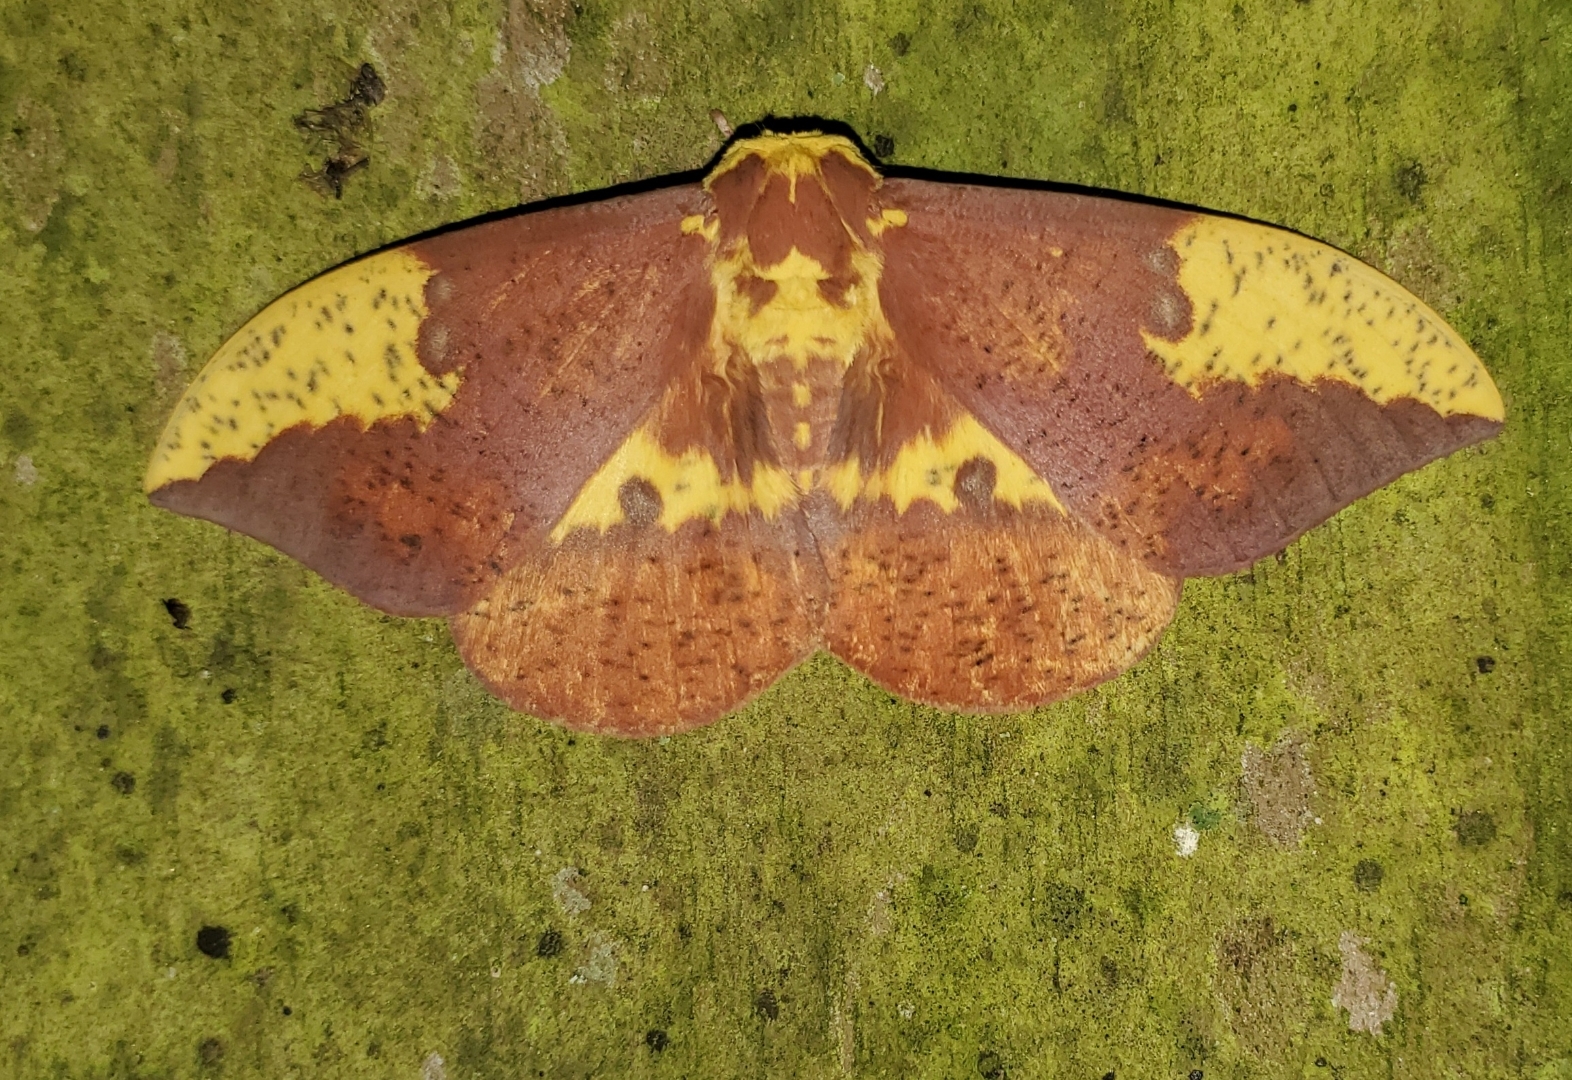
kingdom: Animalia
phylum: Arthropoda
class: Insecta
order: Lepidoptera
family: Saturniidae
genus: Eacles
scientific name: Eacles imperialis
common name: Imperial moth
